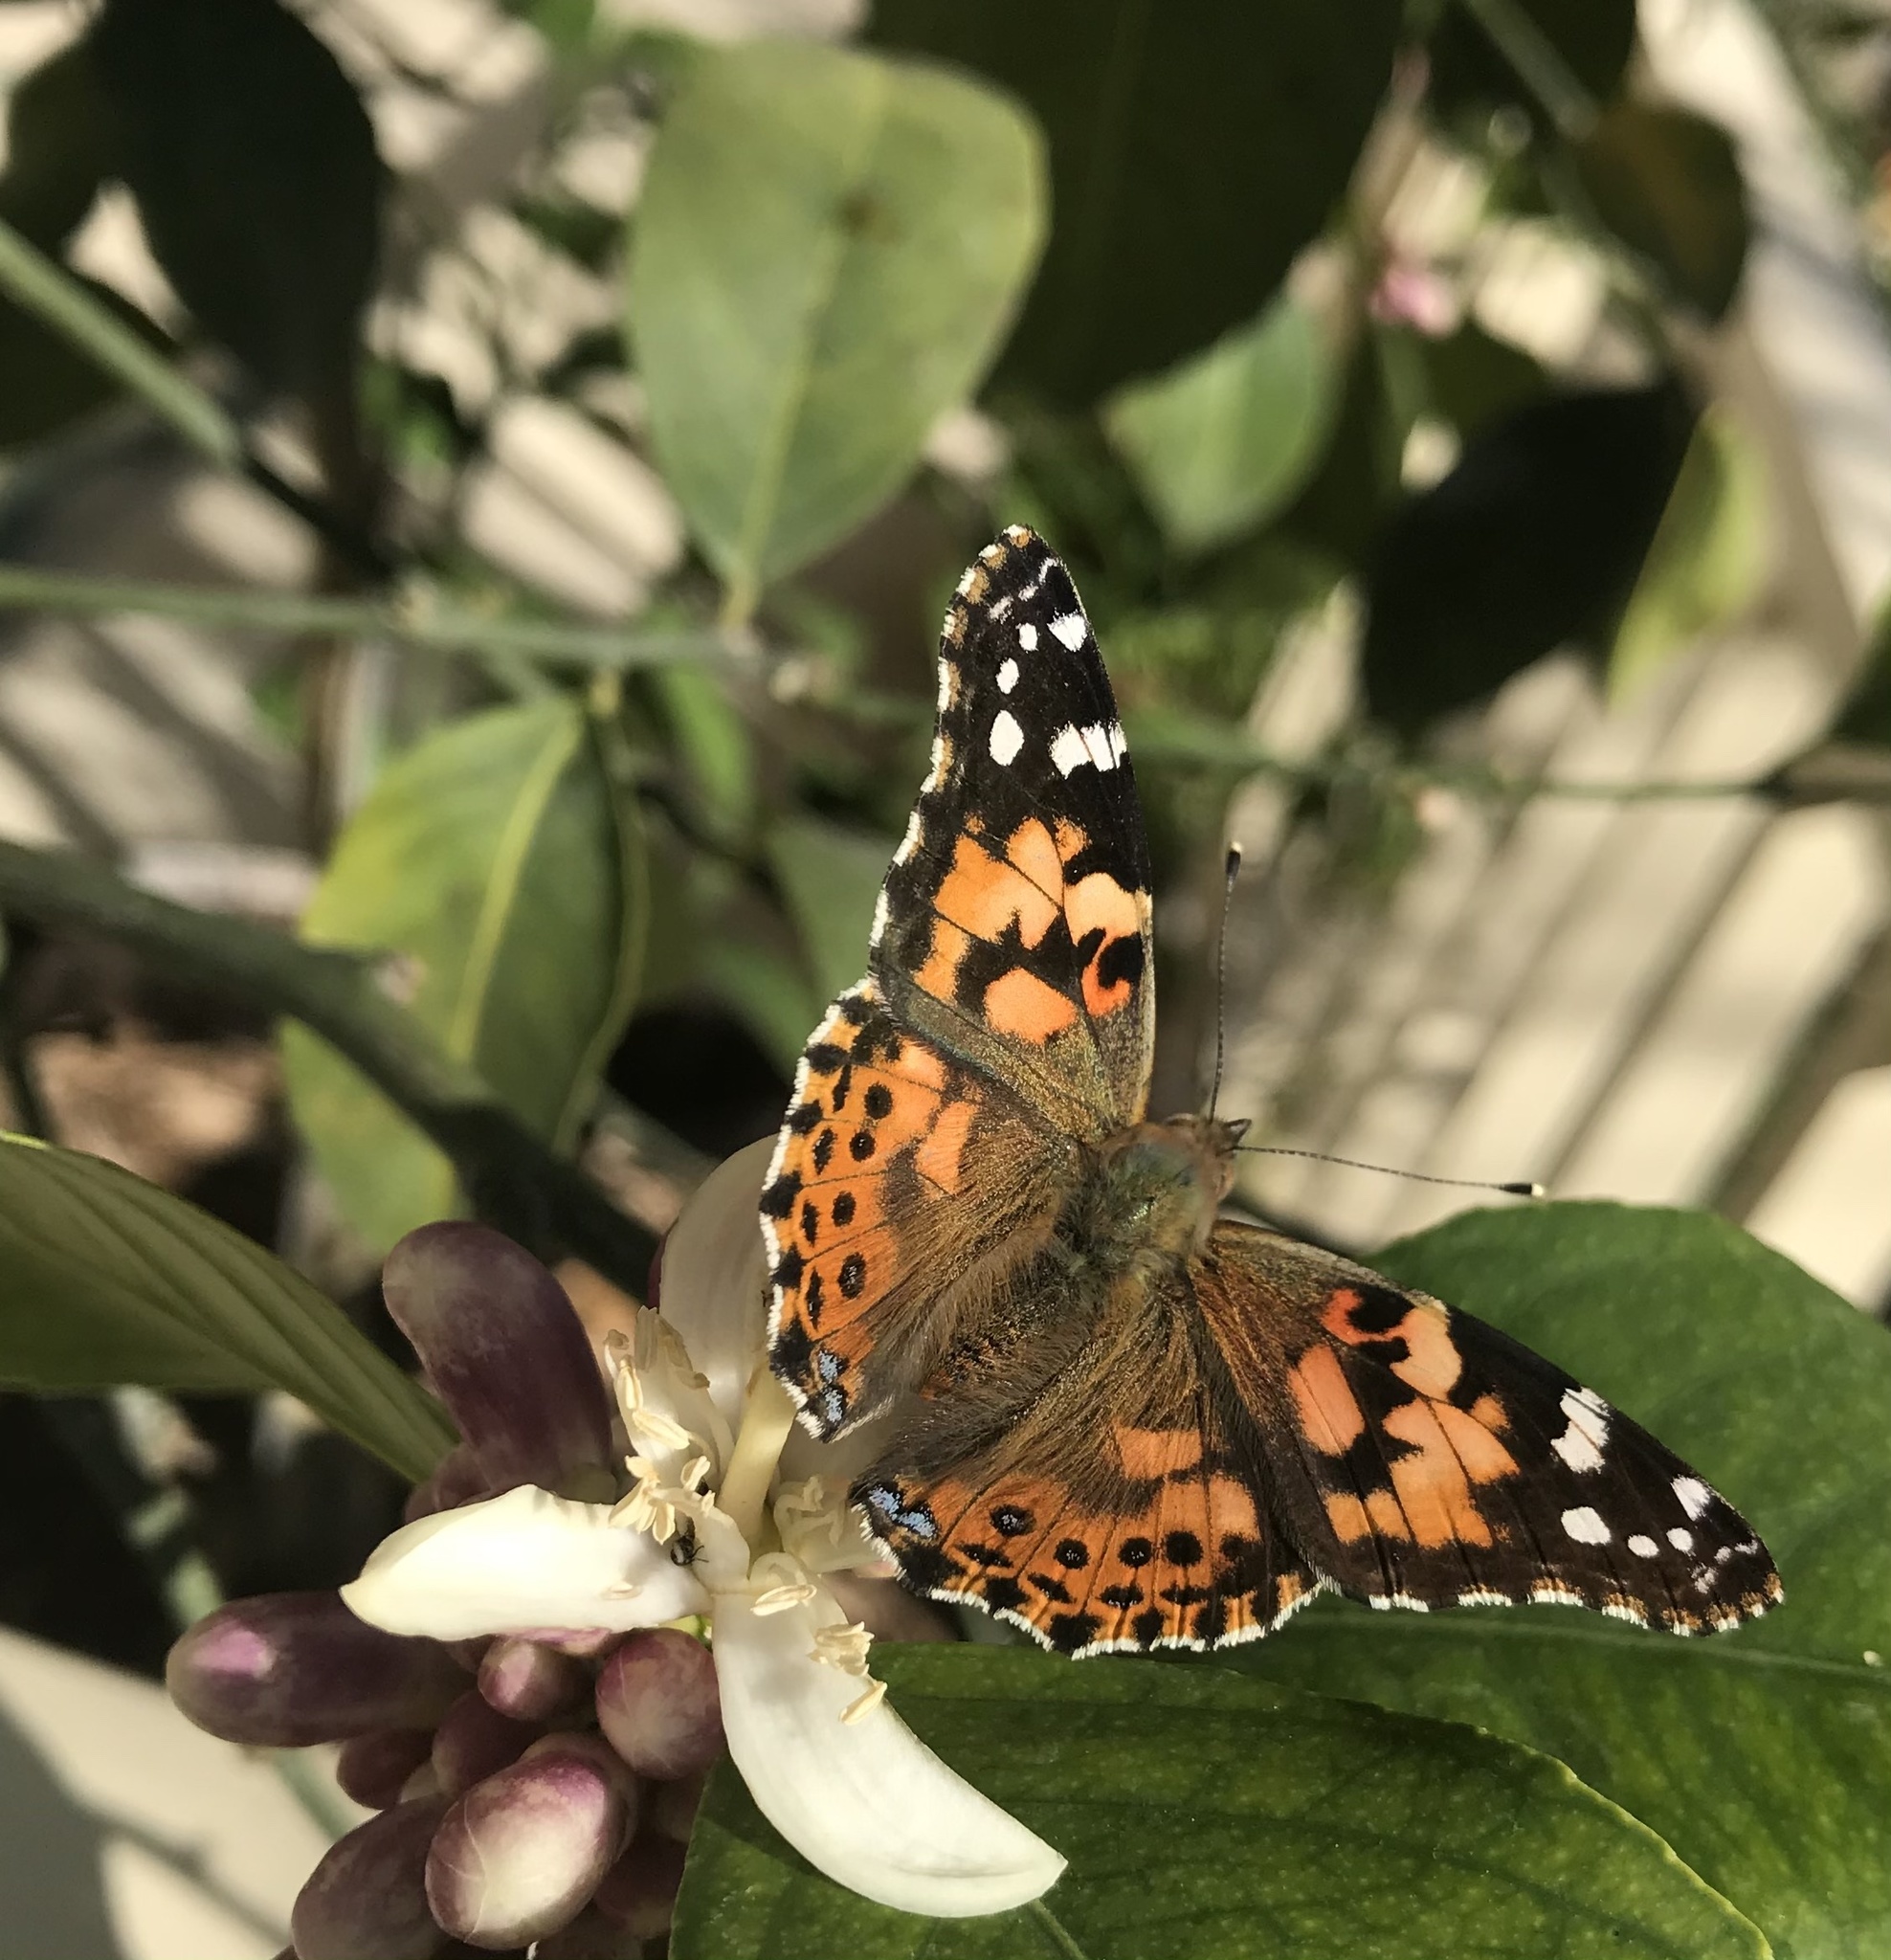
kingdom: Animalia
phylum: Arthropoda
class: Insecta
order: Lepidoptera
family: Nymphalidae
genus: Vanessa
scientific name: Vanessa cardui
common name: Painted lady
